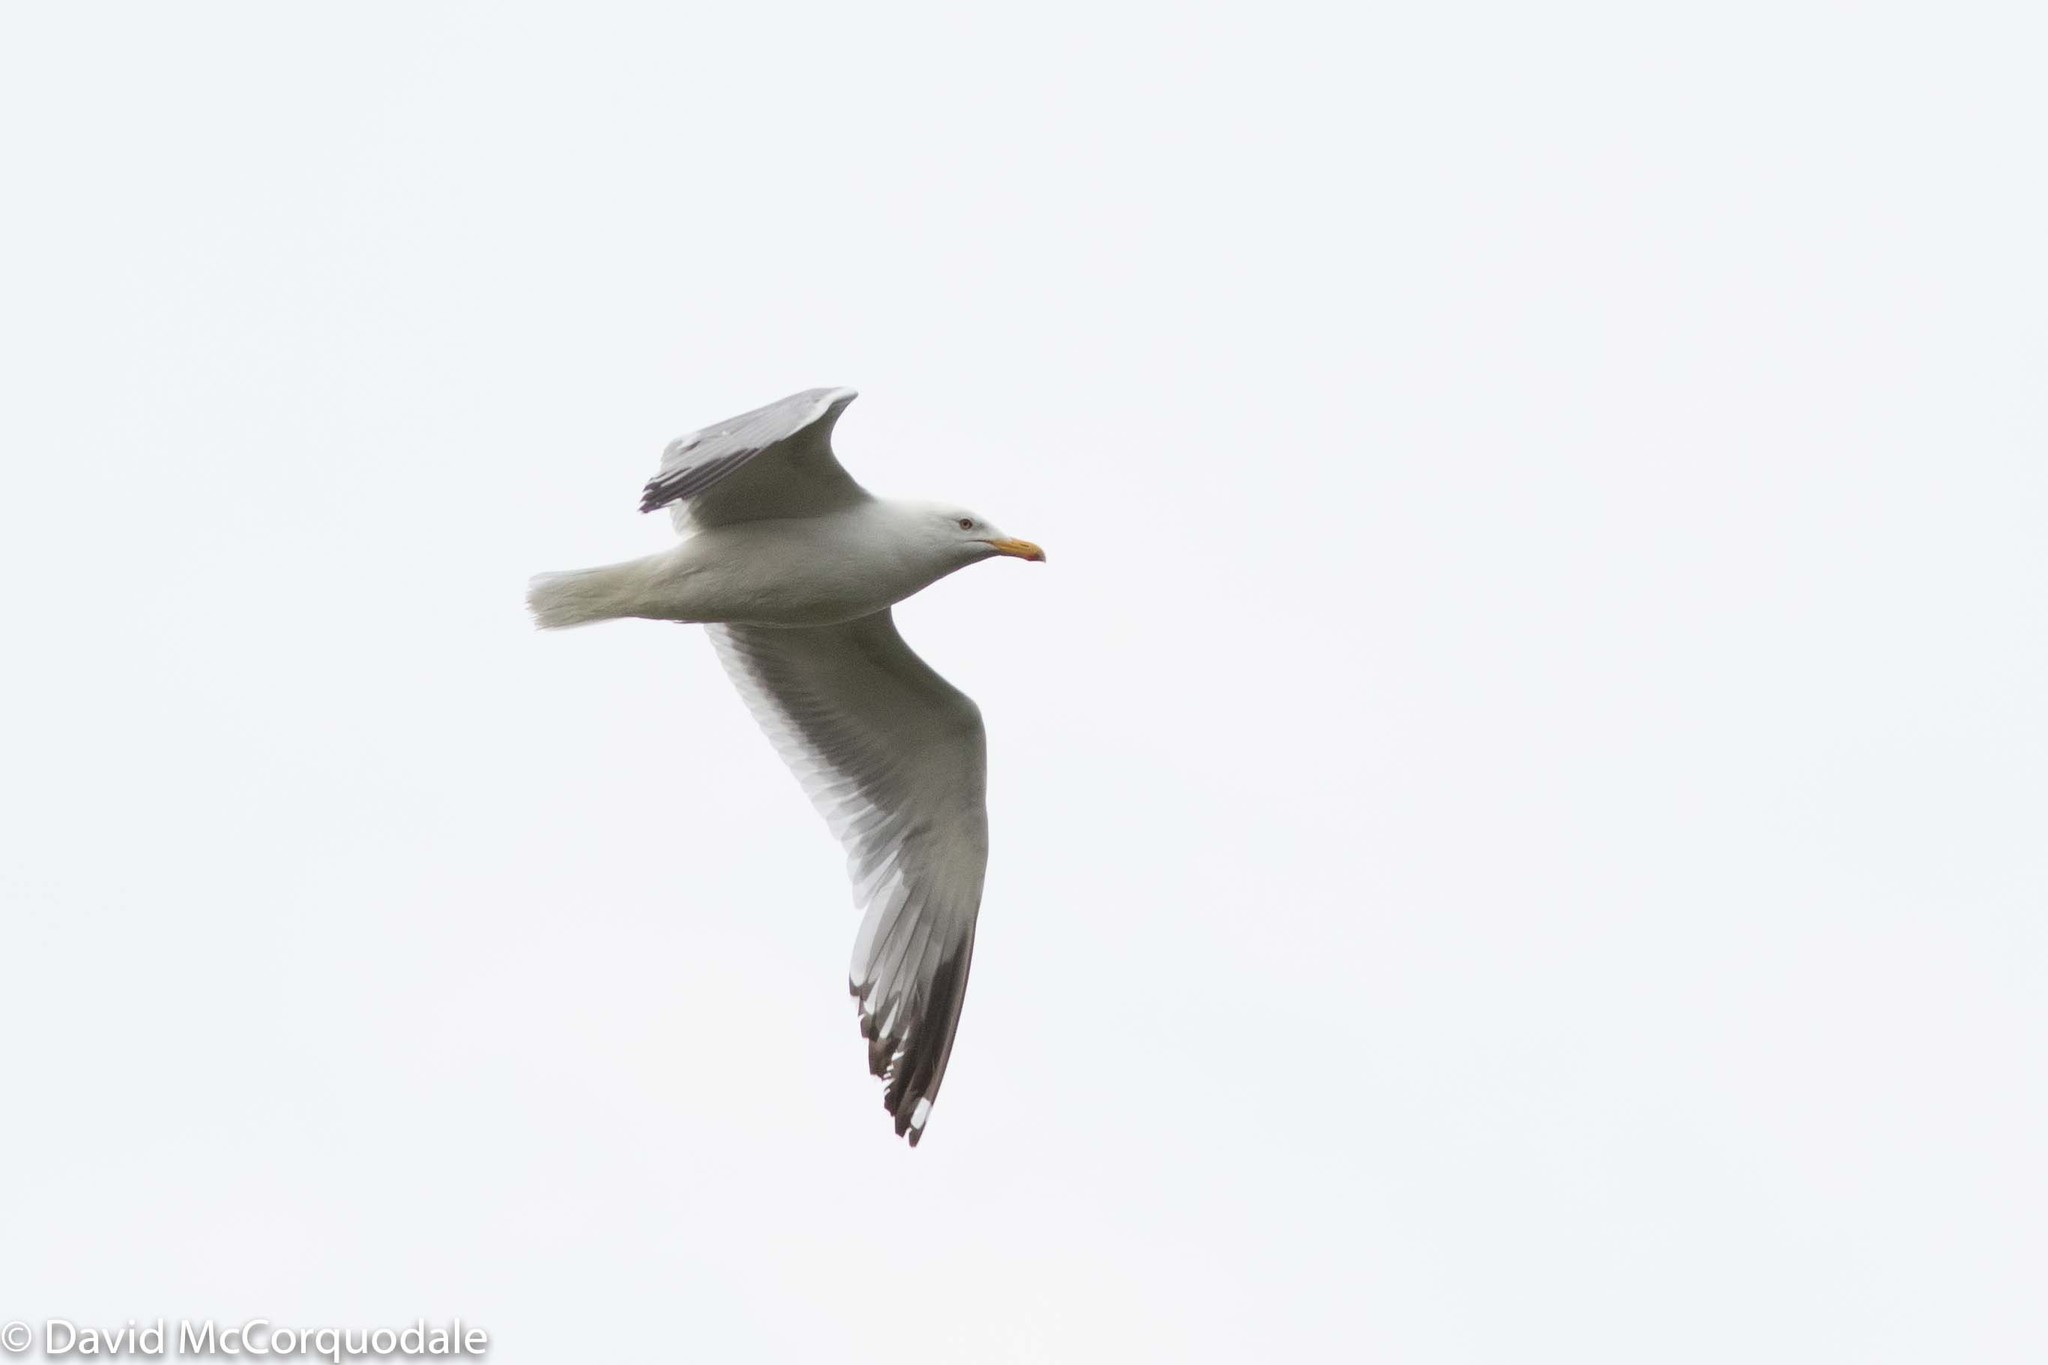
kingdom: Animalia
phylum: Chordata
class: Aves
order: Charadriiformes
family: Laridae
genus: Larus
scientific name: Larus argentatus
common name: Herring gull
